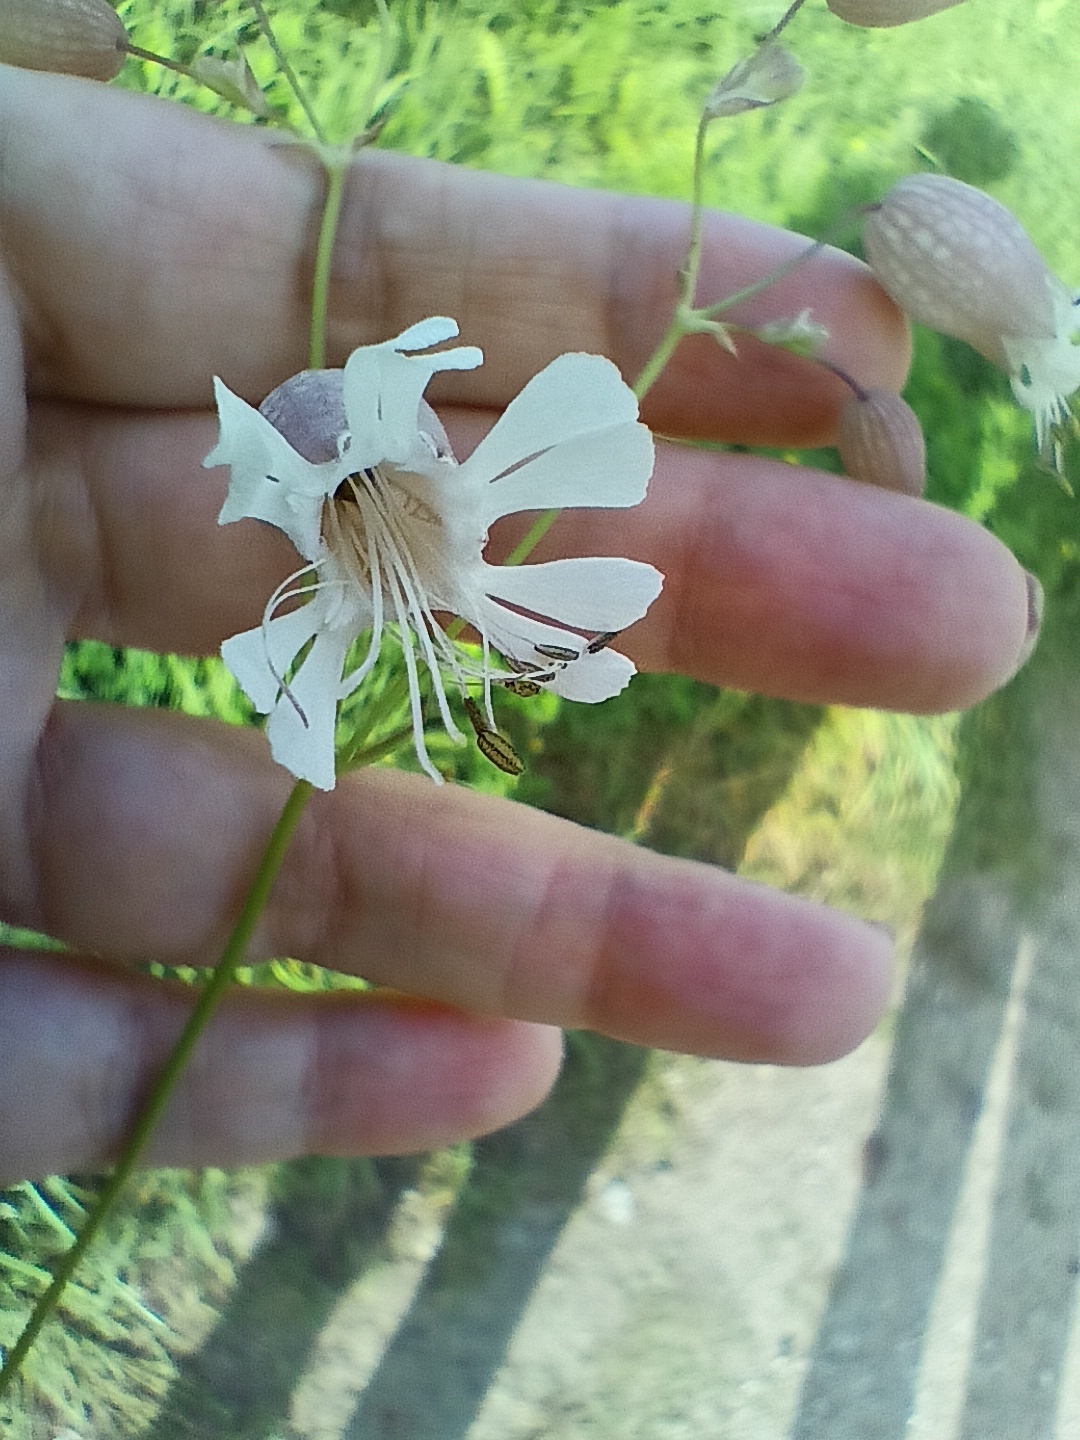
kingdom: Plantae
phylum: Tracheophyta
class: Magnoliopsida
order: Caryophyllales
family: Caryophyllaceae
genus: Silene
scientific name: Silene vulgaris
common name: Bladder campion
